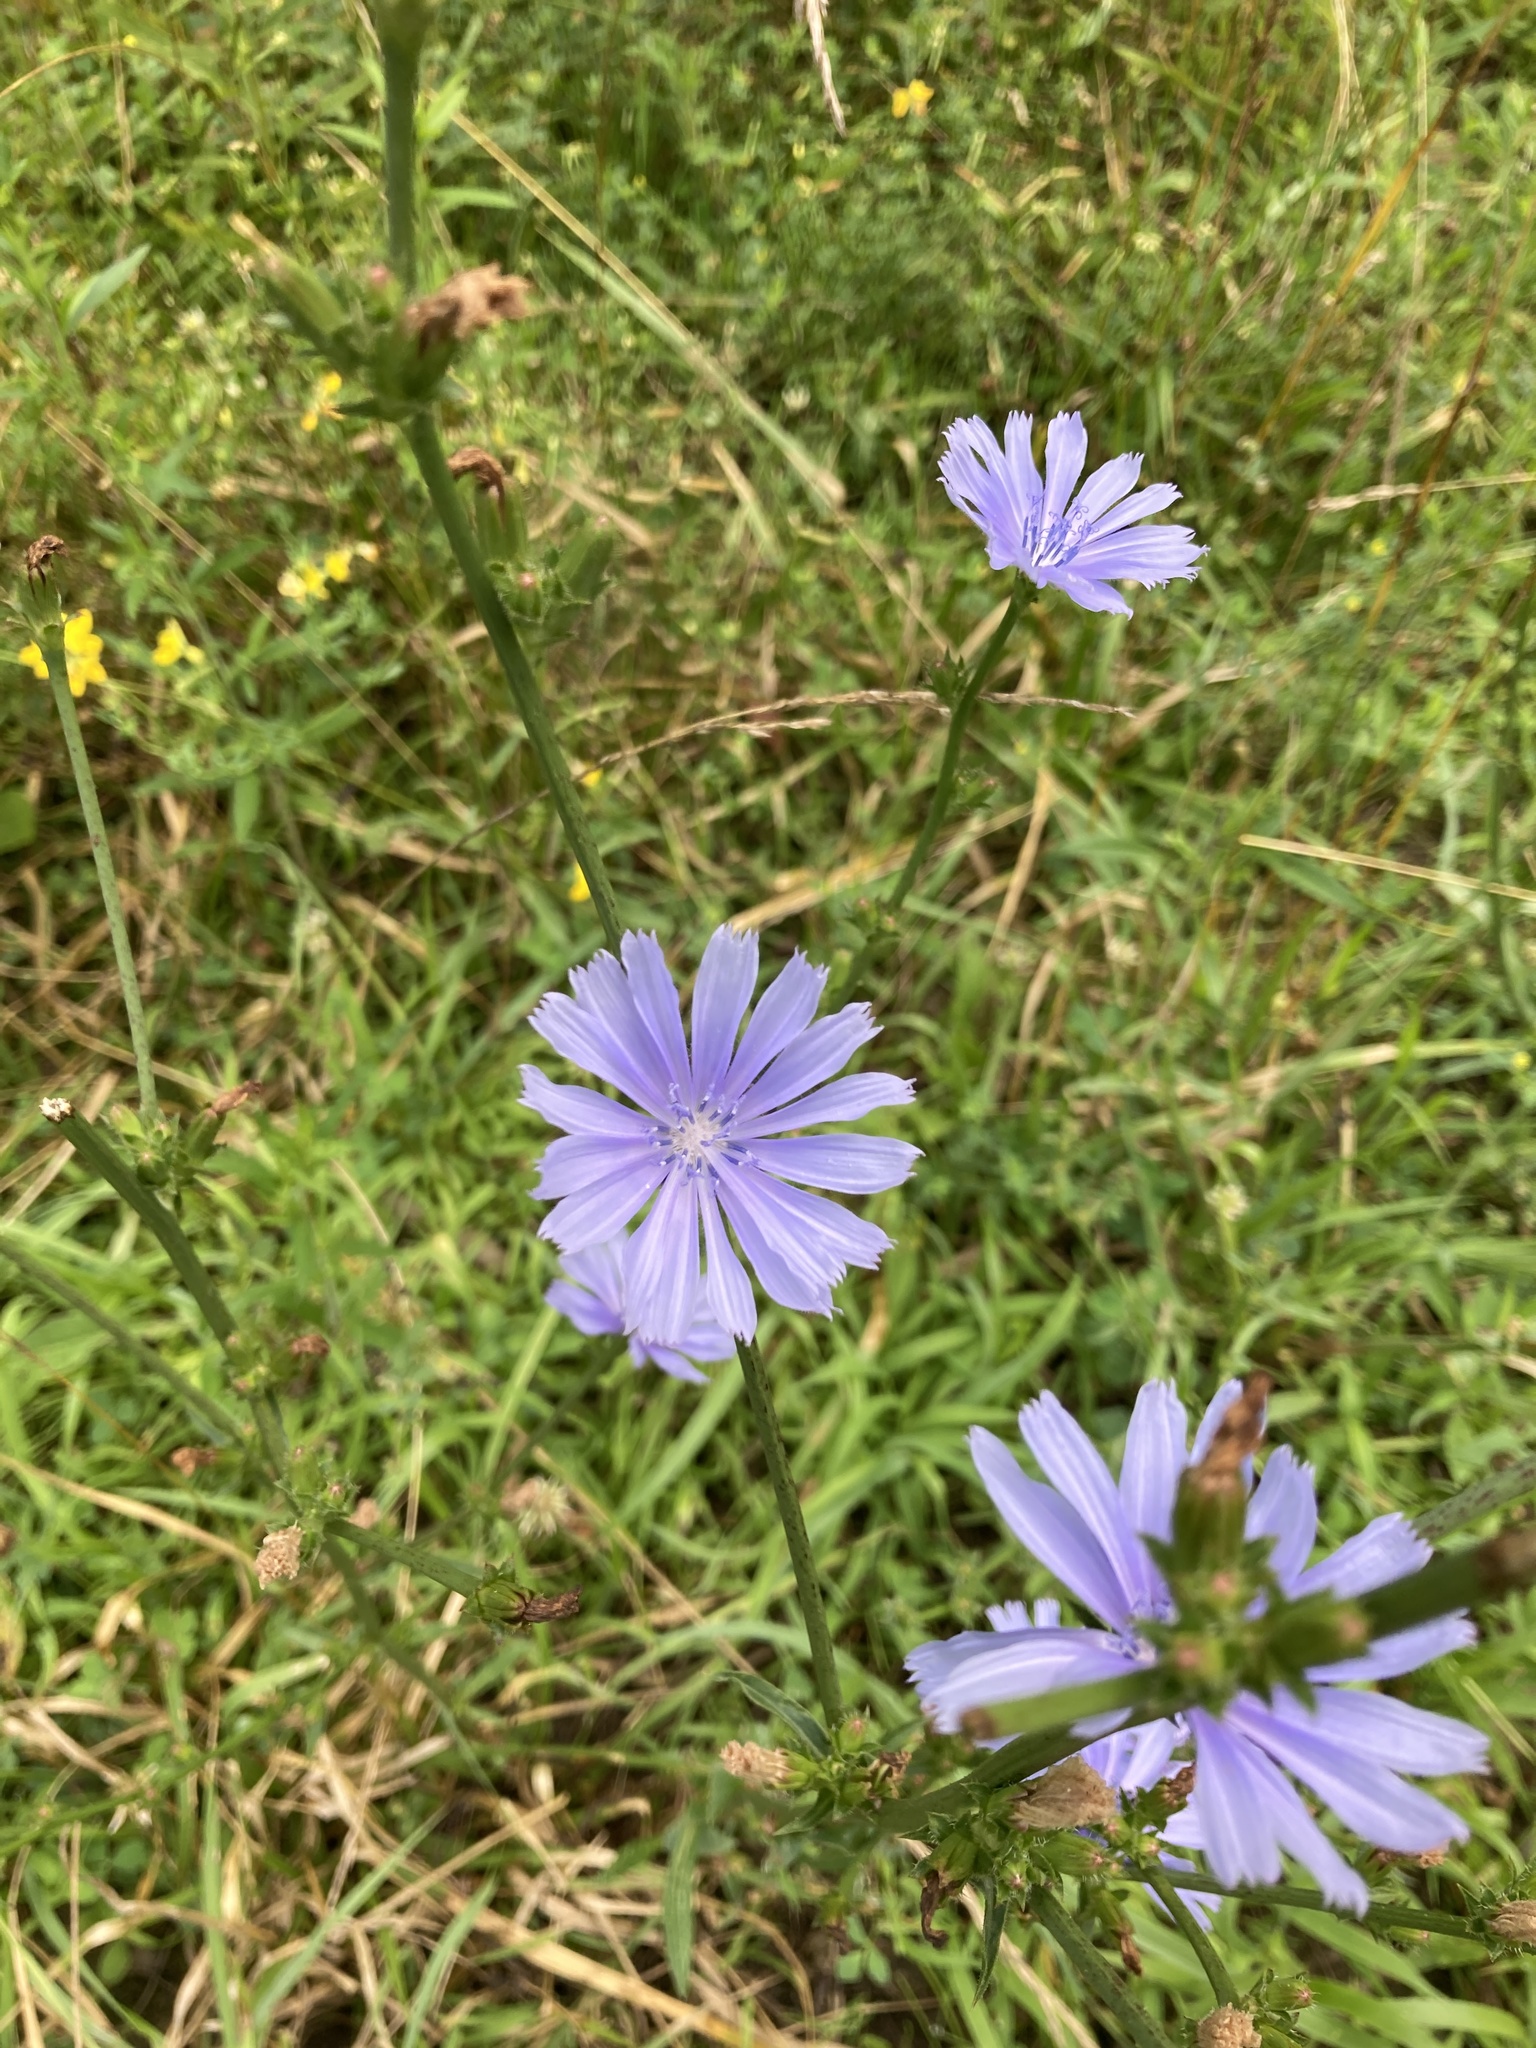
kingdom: Plantae
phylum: Tracheophyta
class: Magnoliopsida
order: Asterales
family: Asteraceae
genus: Cichorium
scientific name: Cichorium intybus
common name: Chicory
